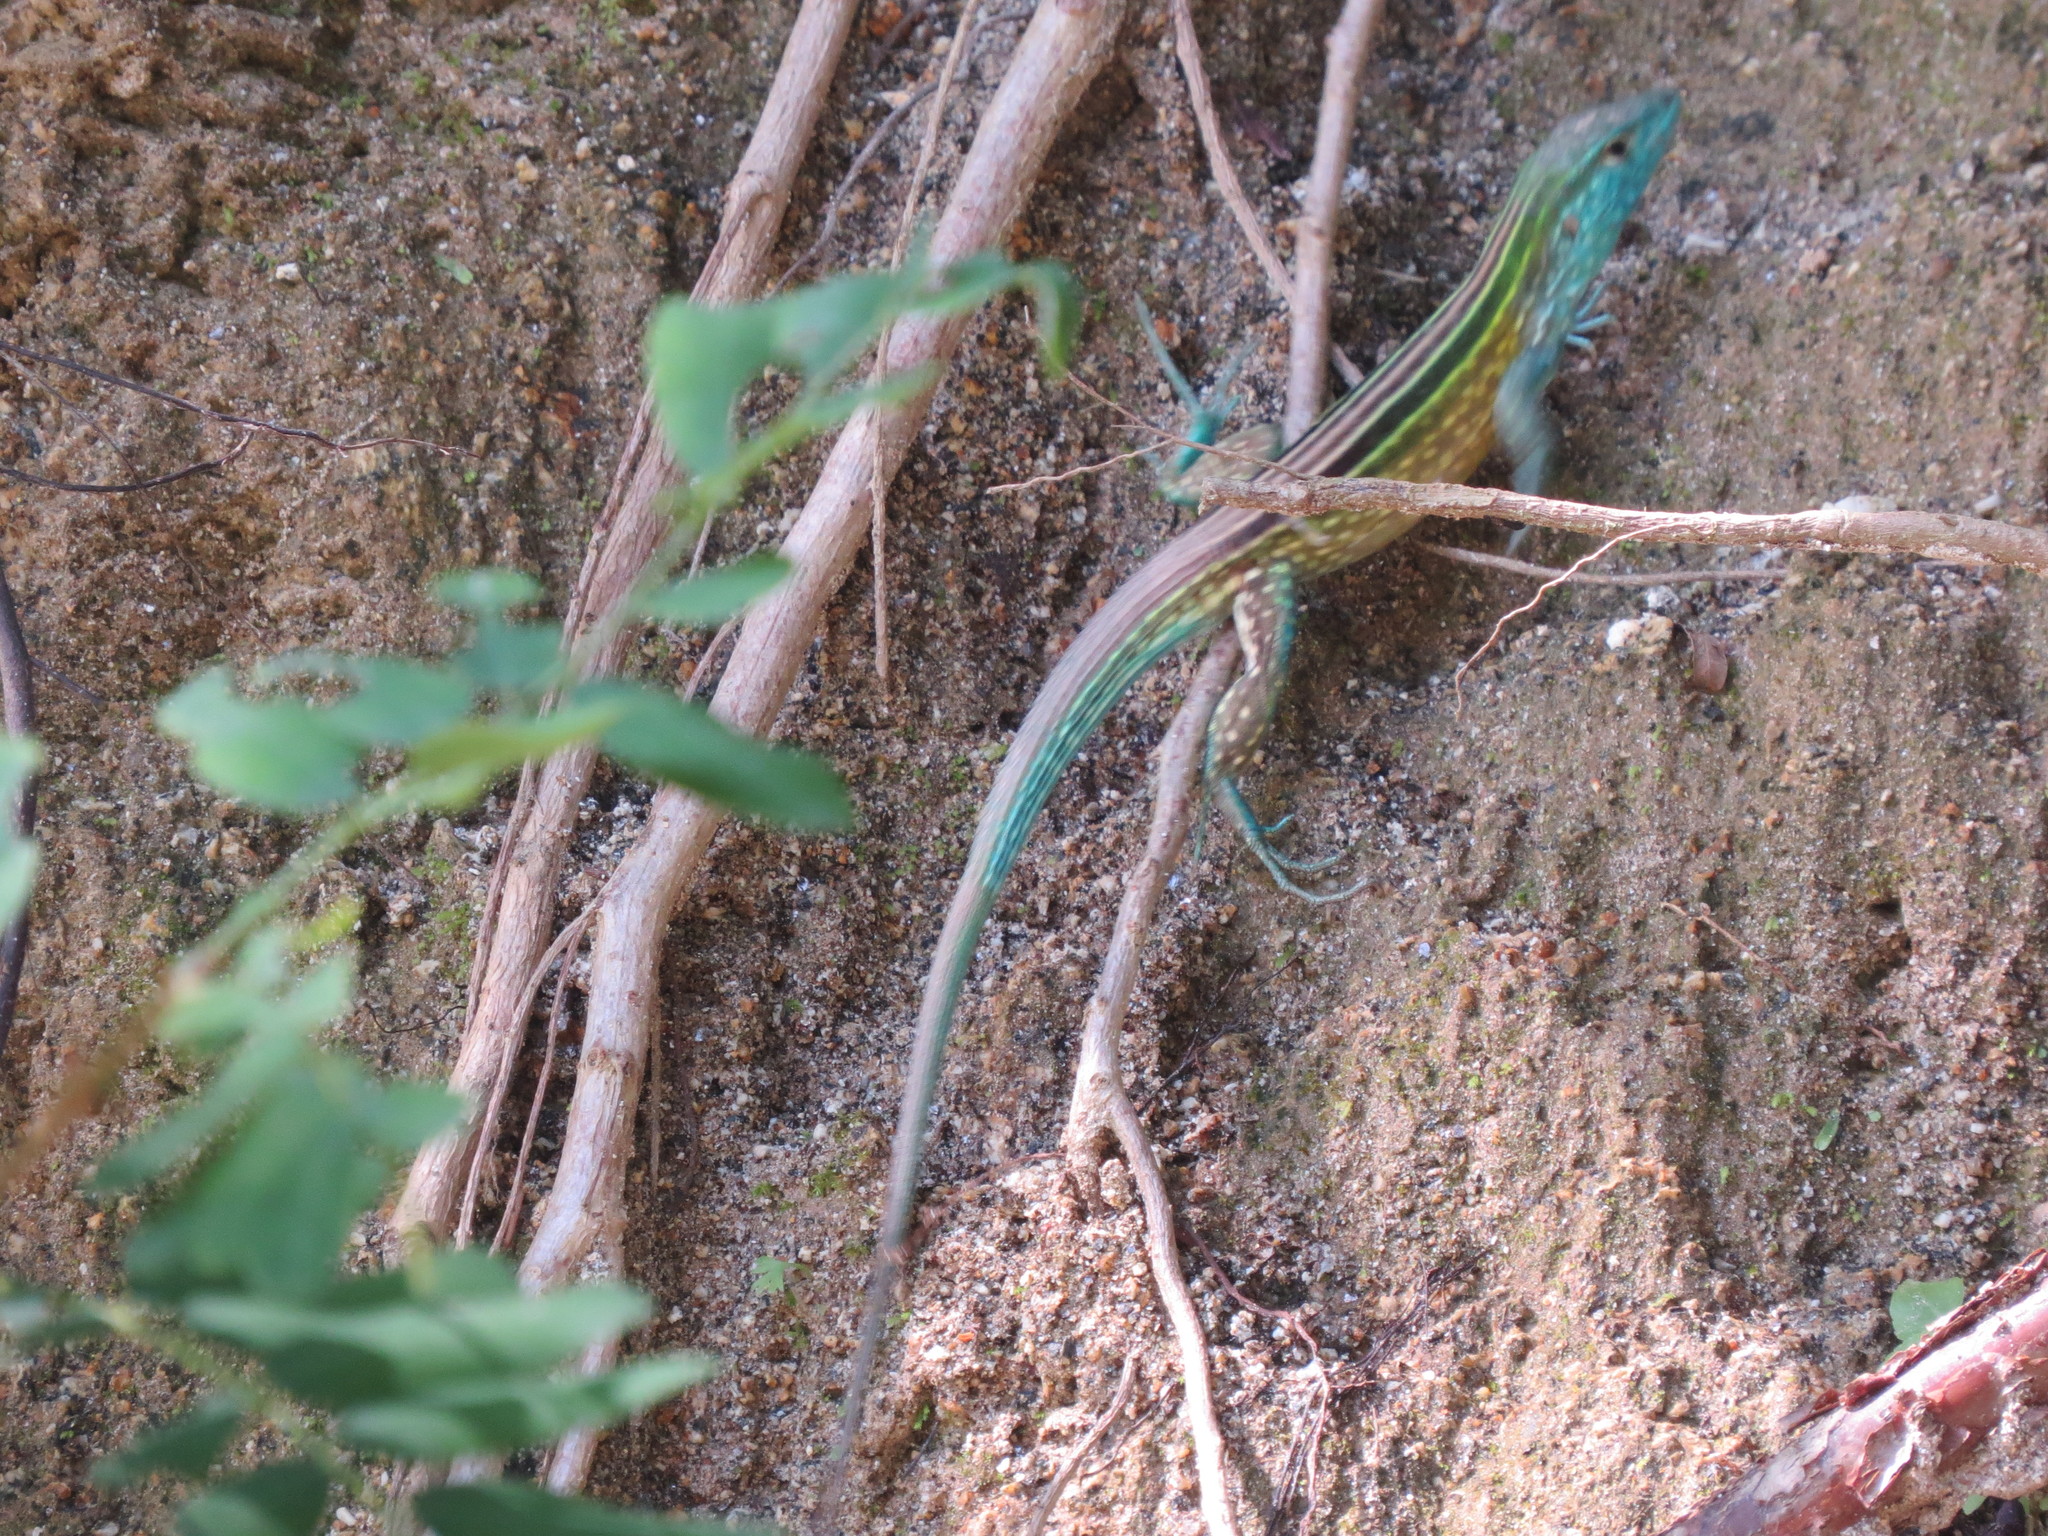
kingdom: Animalia
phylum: Chordata
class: Squamata
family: Teiidae
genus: Cnemidophorus
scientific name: Cnemidophorus gaigei
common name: Gaige’s rainbow lizard
